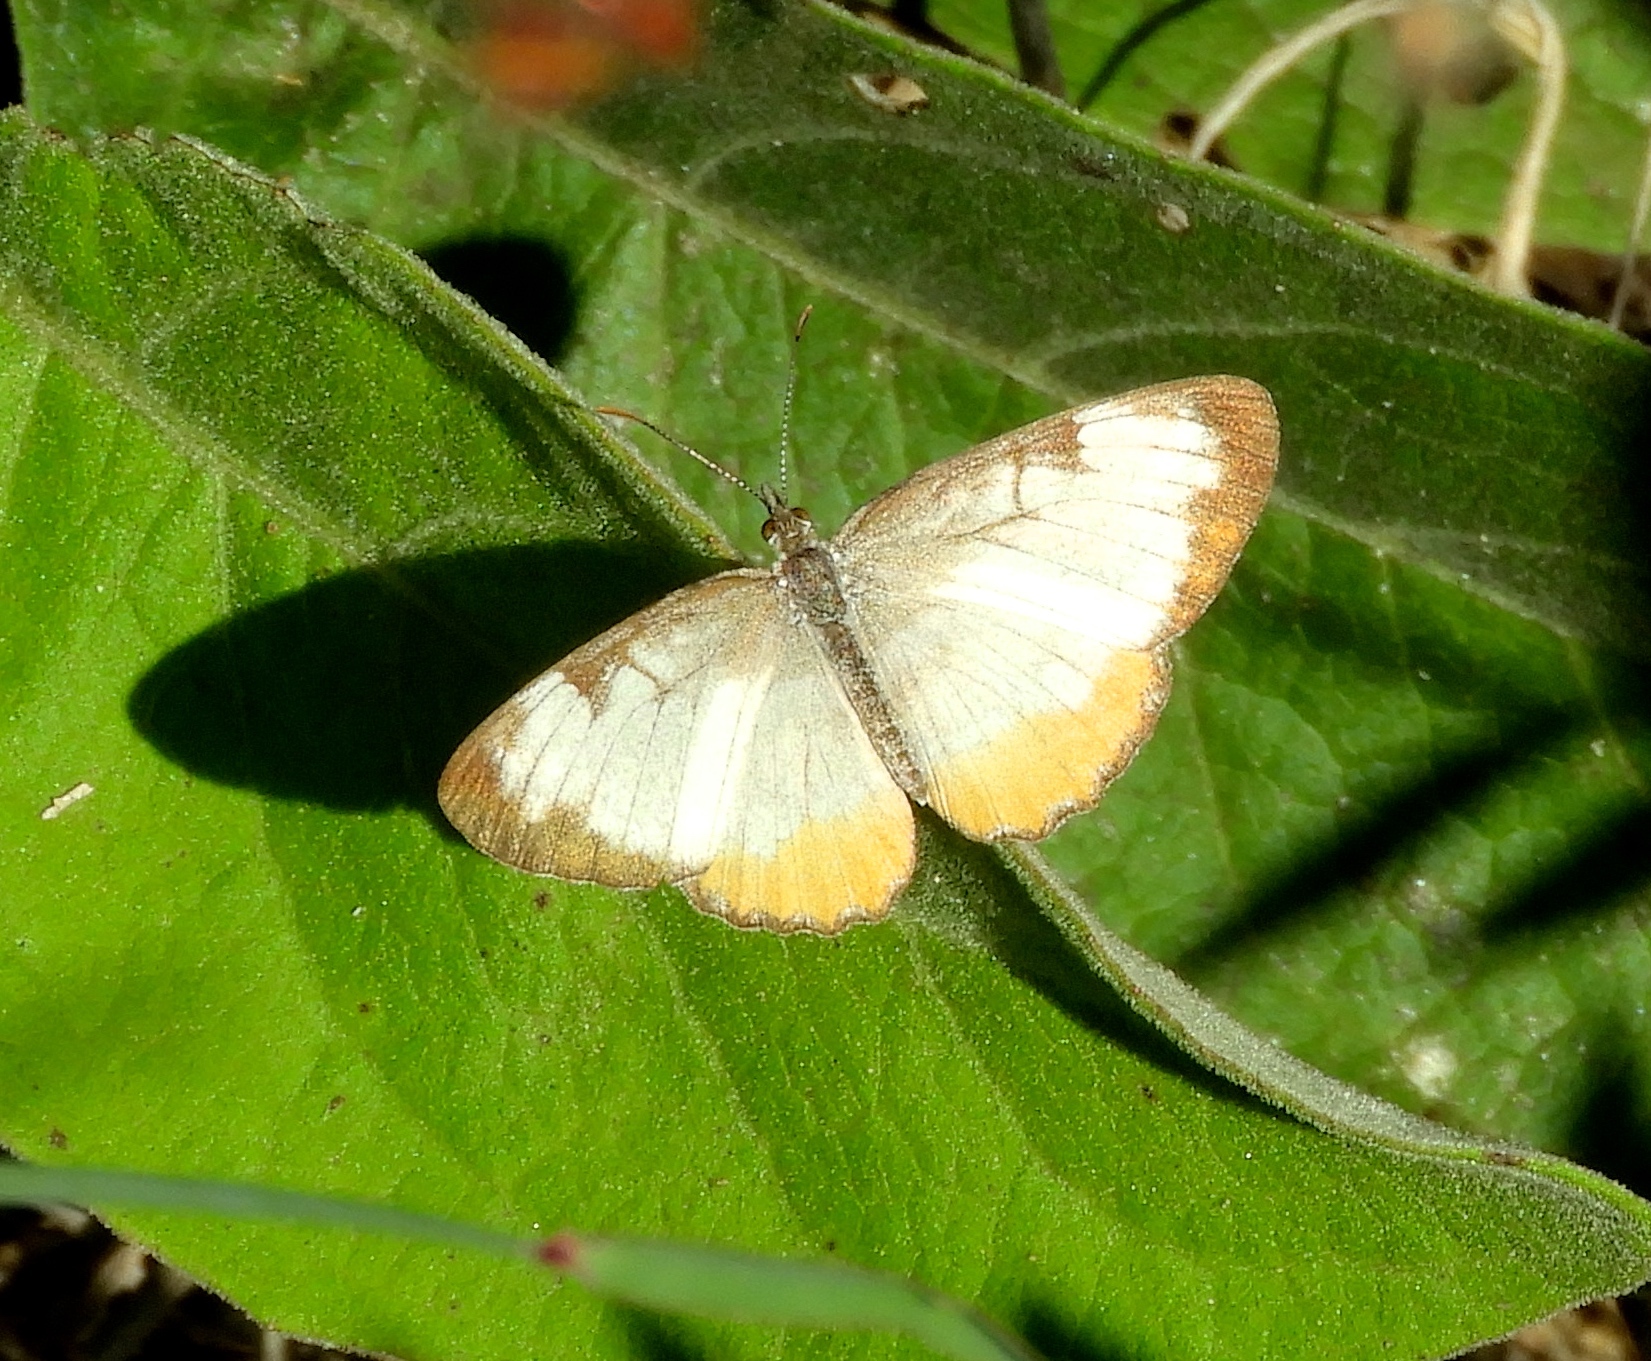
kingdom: Animalia
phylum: Arthropoda
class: Insecta
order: Lepidoptera
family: Nymphalidae
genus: Mestra
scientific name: Mestra amymone
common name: Common mestra
